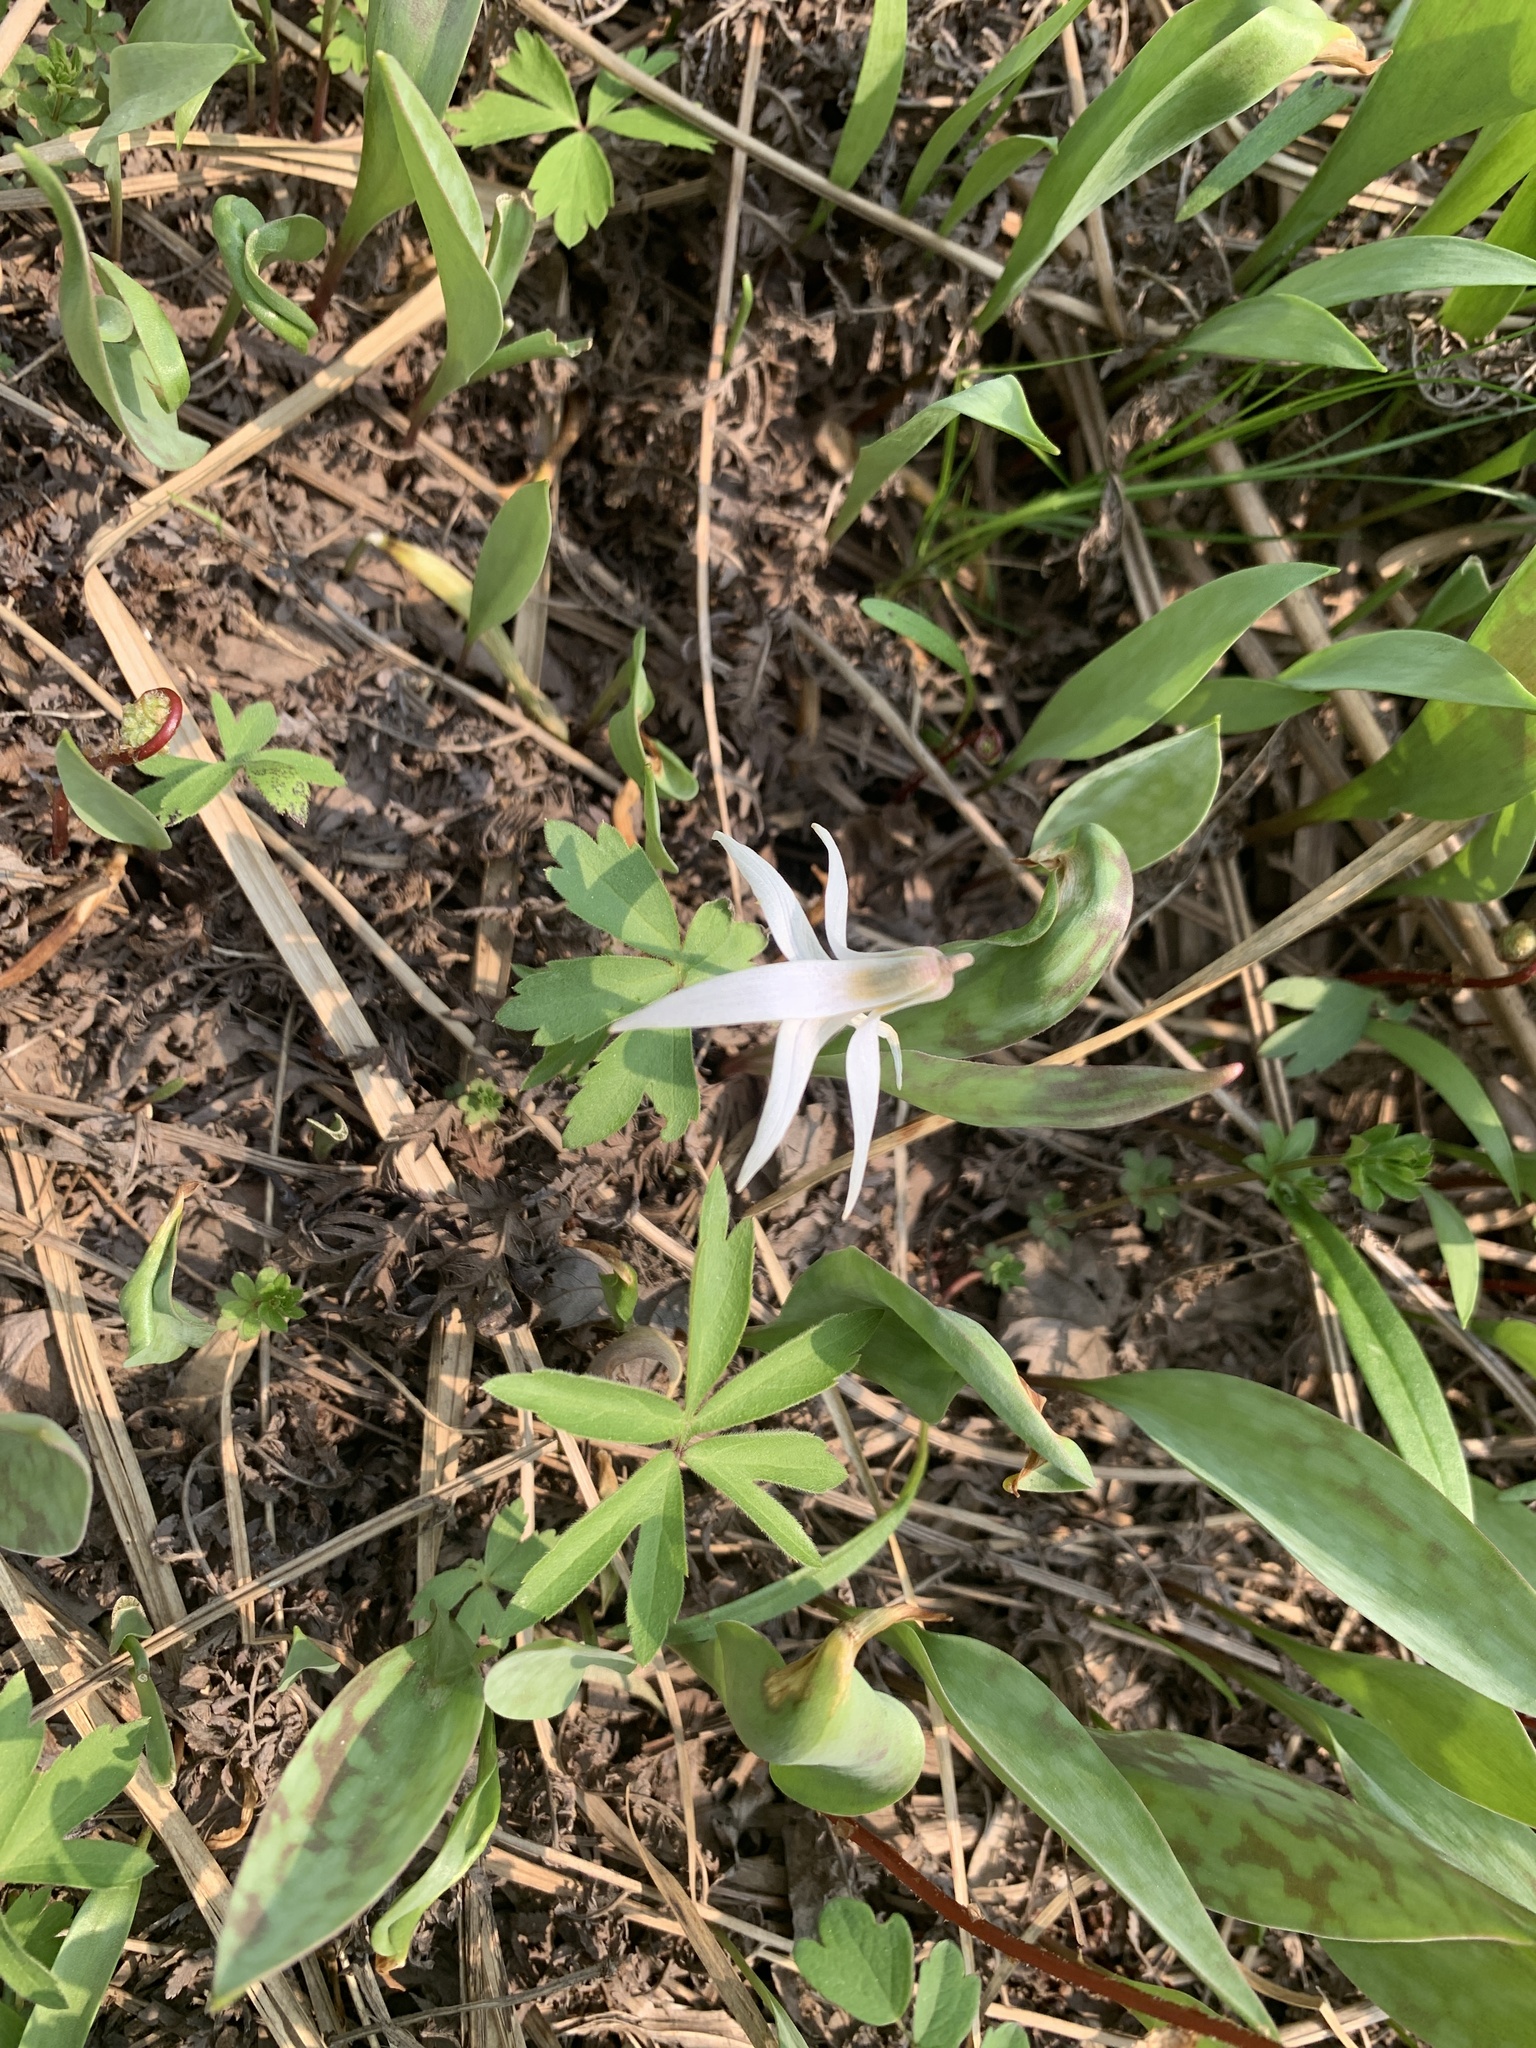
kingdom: Plantae
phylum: Tracheophyta
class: Liliopsida
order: Liliales
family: Liliaceae
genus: Erythronium
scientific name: Erythronium albidum
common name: White trout-lily
